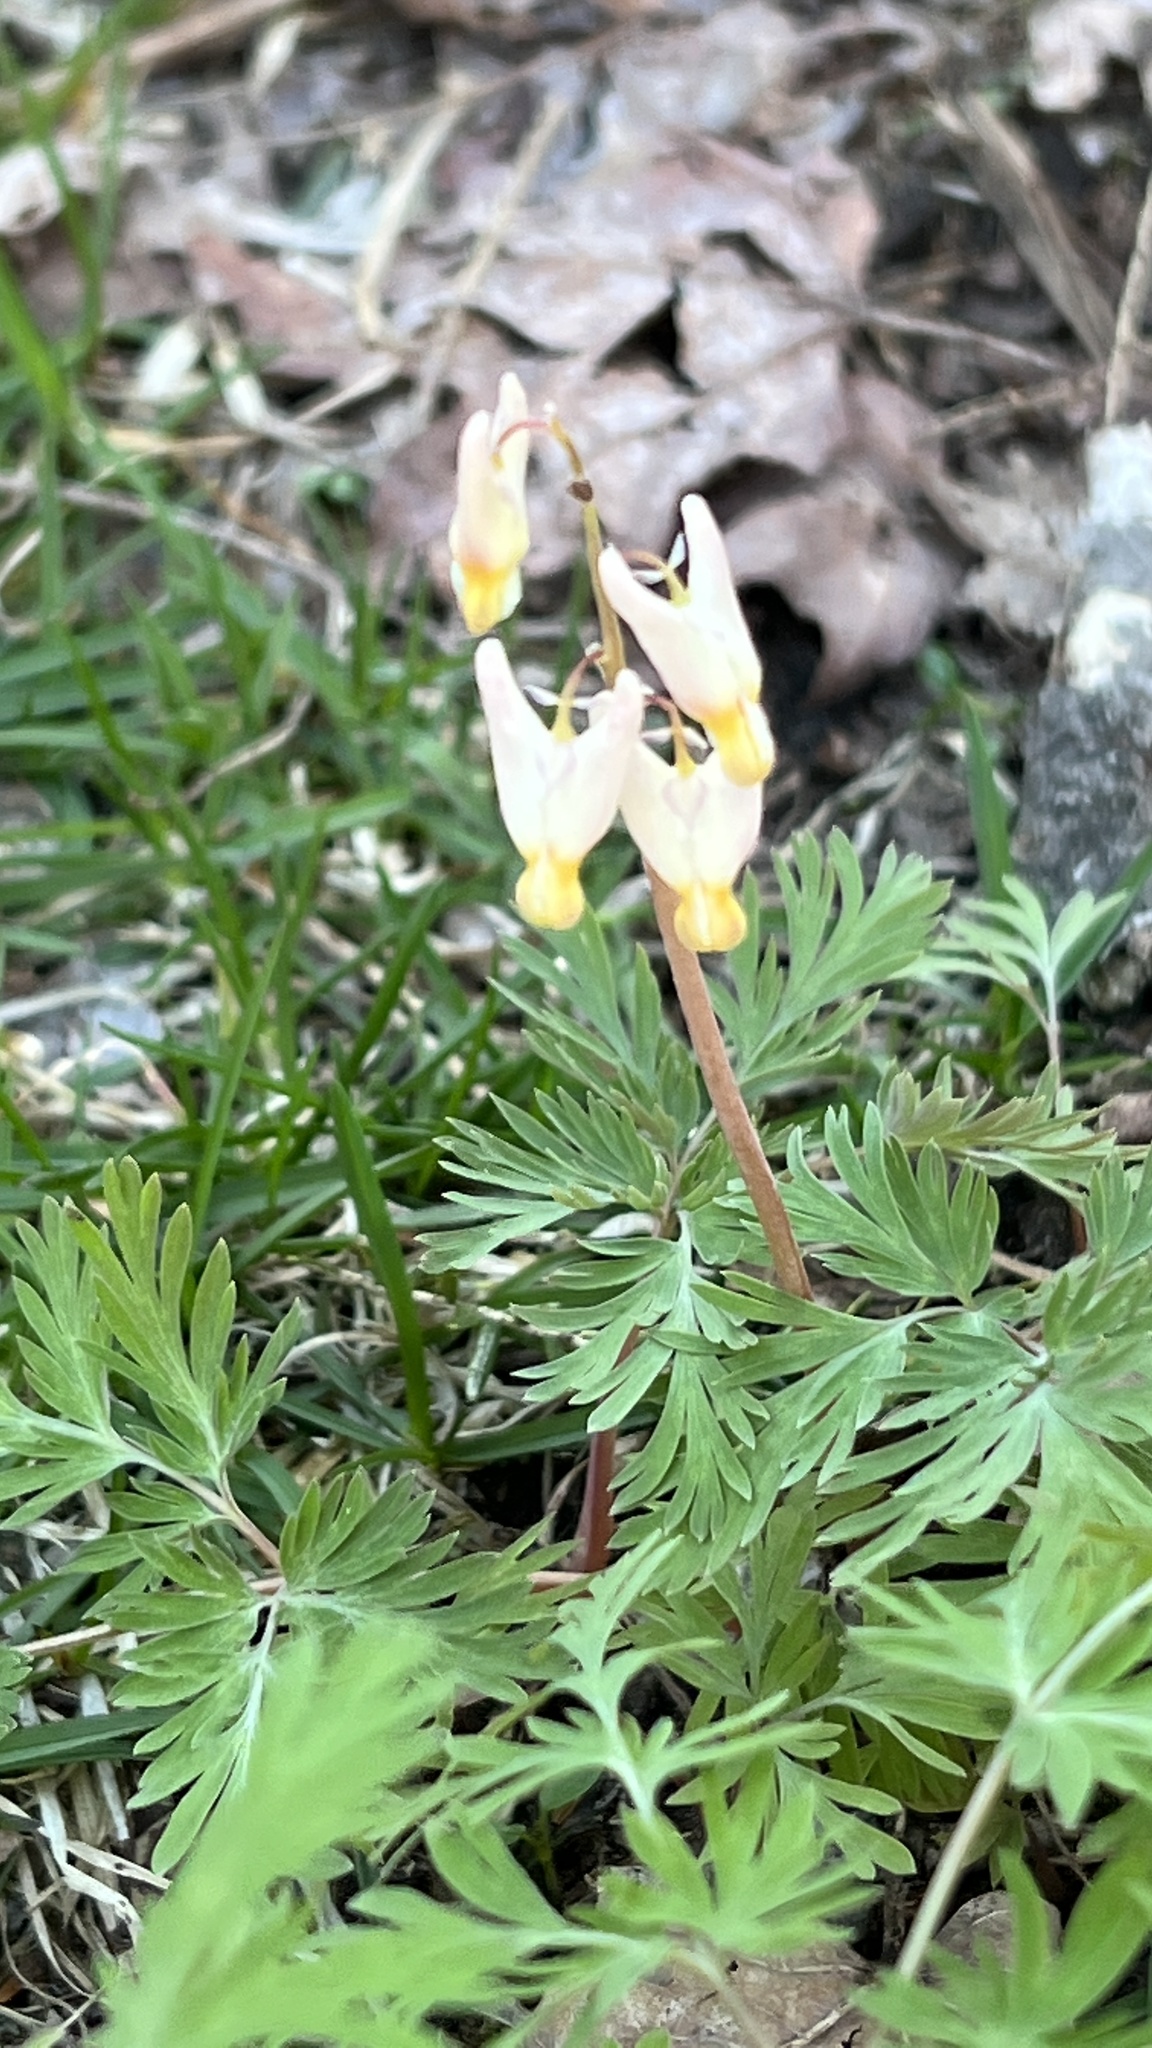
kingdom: Plantae
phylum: Tracheophyta
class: Magnoliopsida
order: Ranunculales
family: Papaveraceae
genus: Dicentra
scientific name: Dicentra cucullaria
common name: Dutchman's breeches
